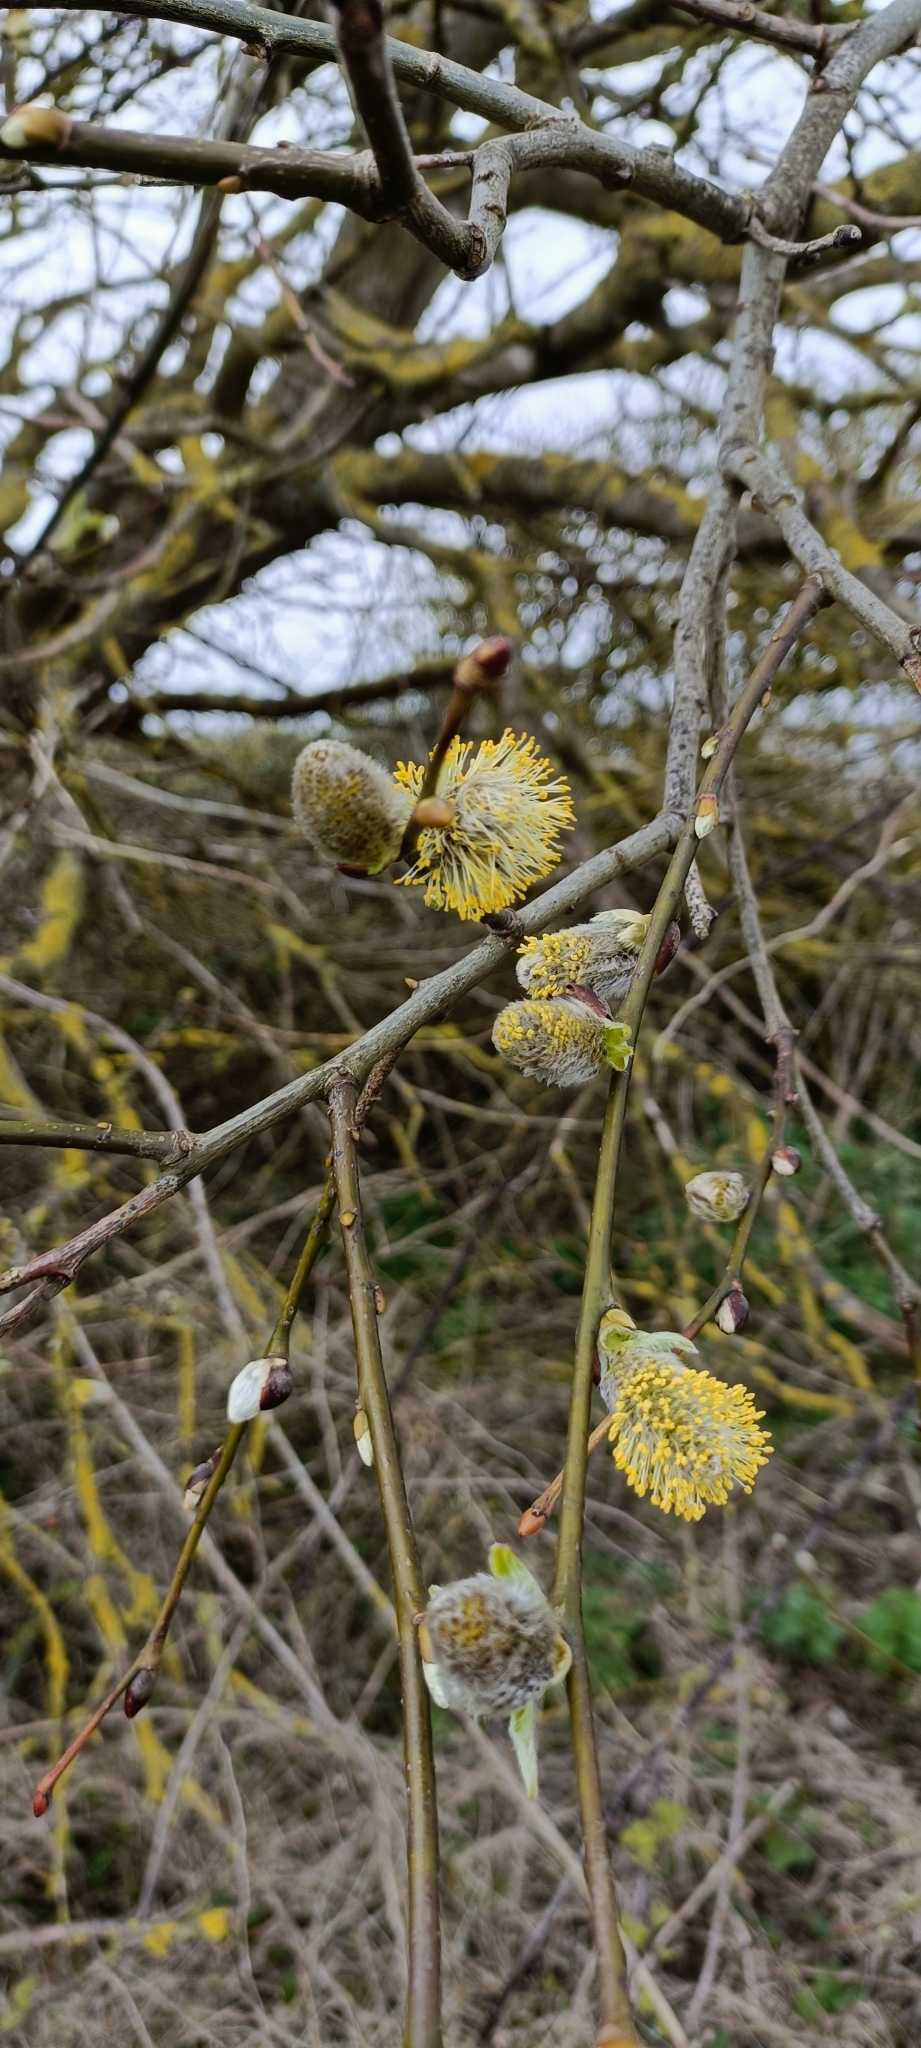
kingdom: Plantae
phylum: Tracheophyta
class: Magnoliopsida
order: Malpighiales
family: Salicaceae
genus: Salix
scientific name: Salix caprea
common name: Goat willow
